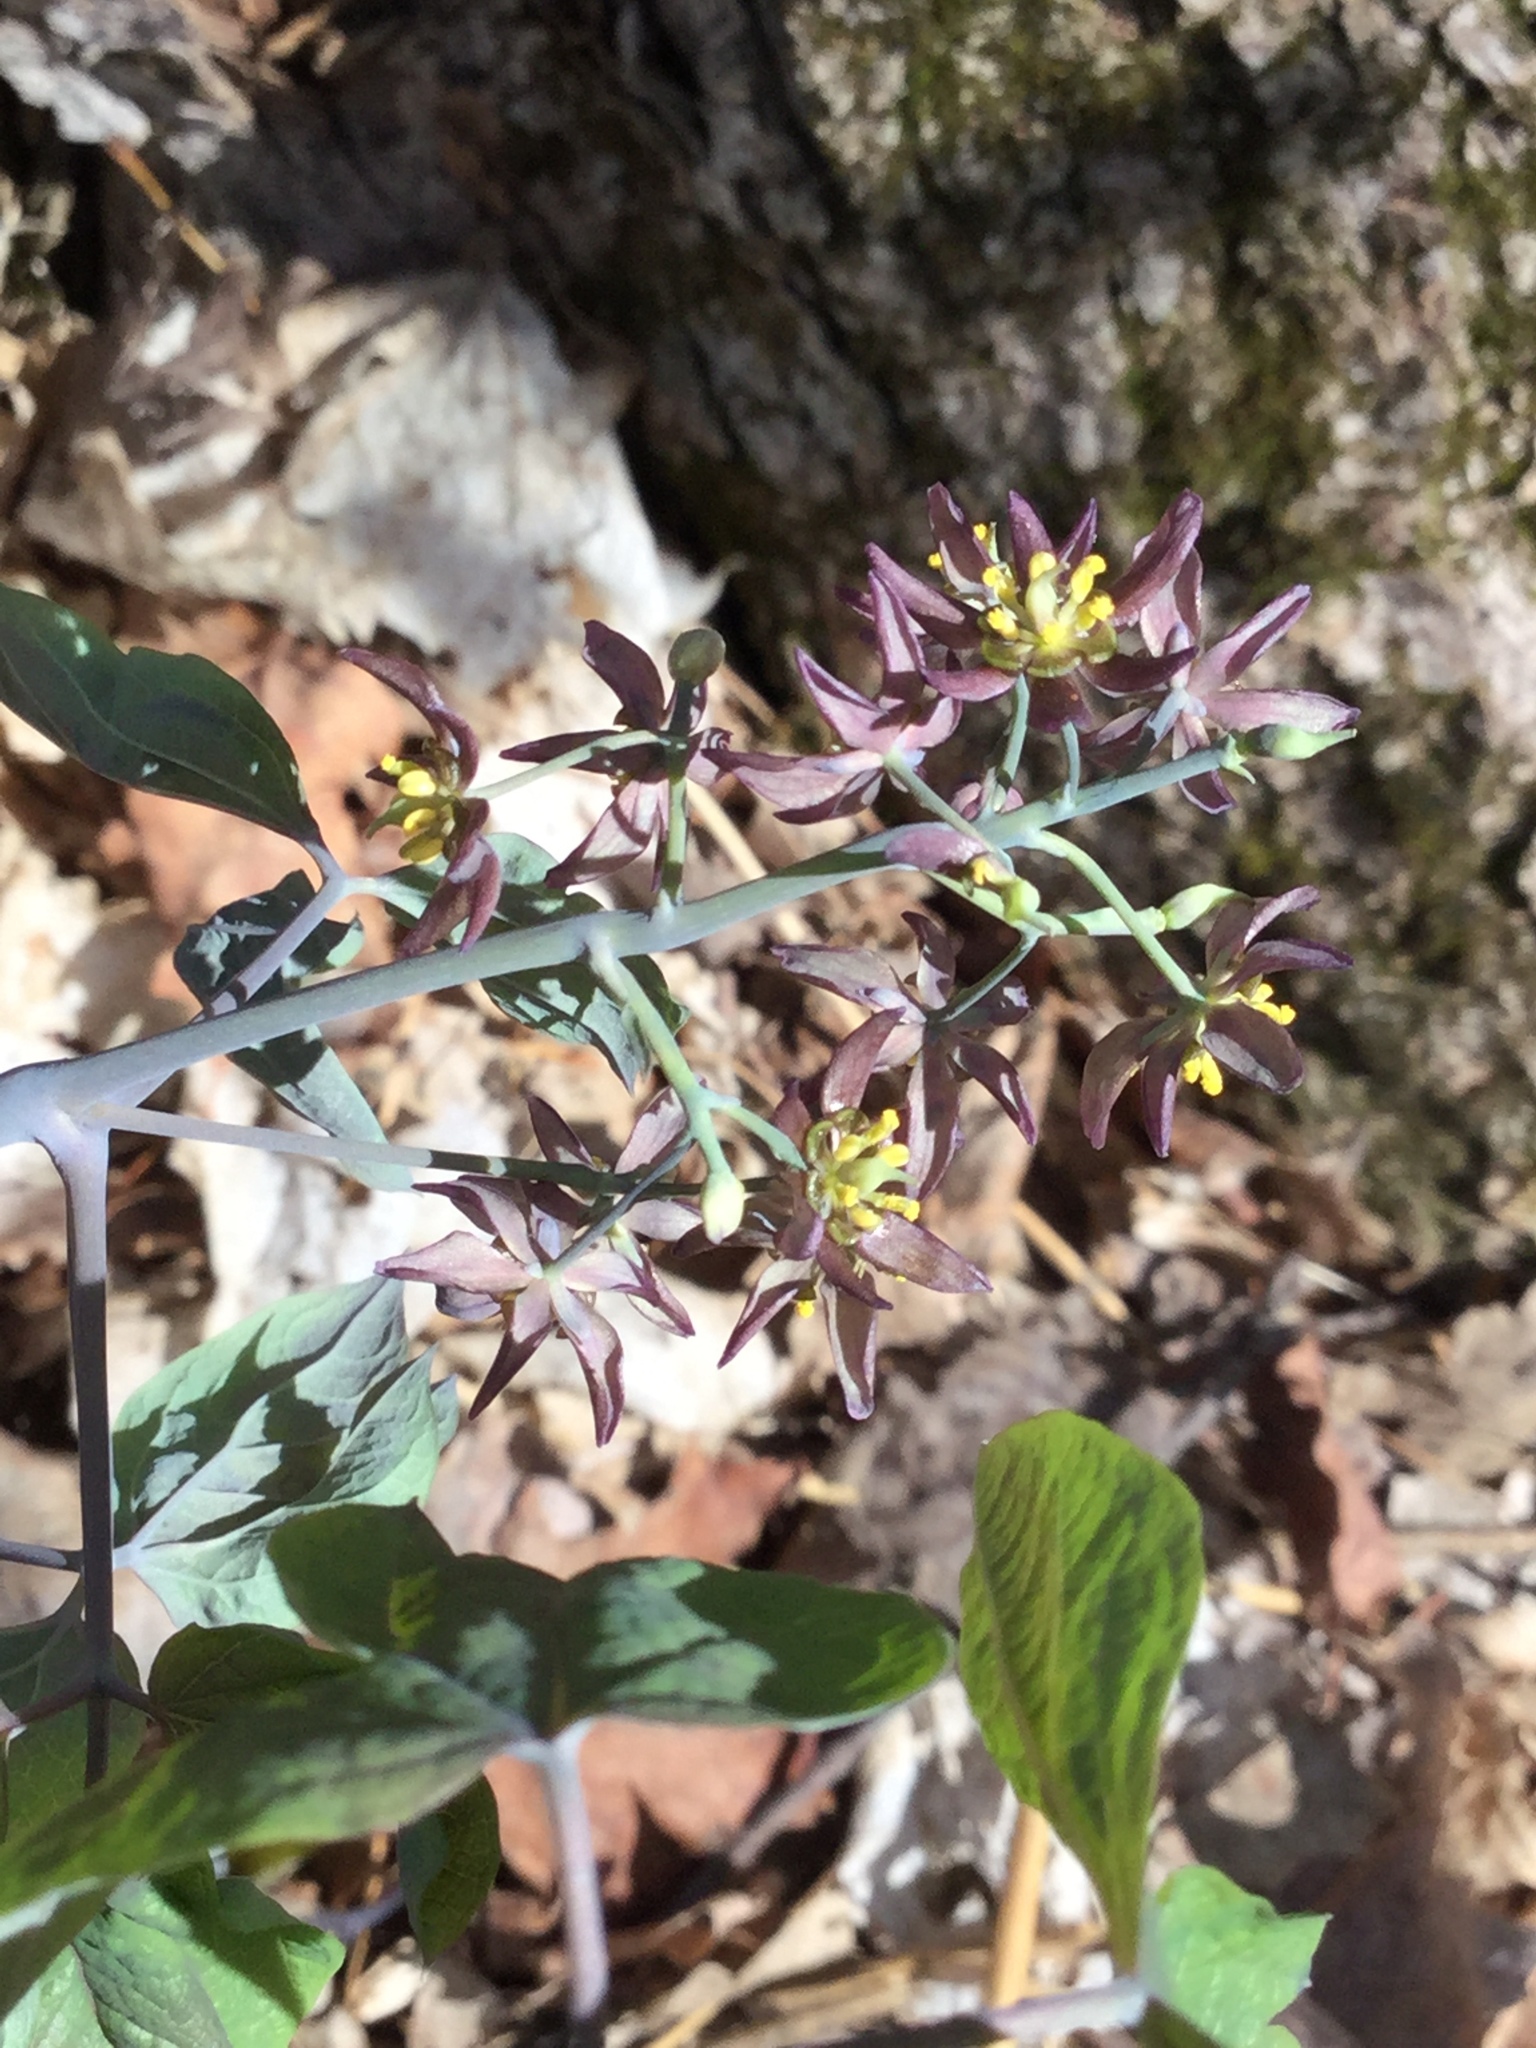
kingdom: Plantae
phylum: Tracheophyta
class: Magnoliopsida
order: Ranunculales
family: Berberidaceae
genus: Caulophyllum
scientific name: Caulophyllum giganteum
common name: Blue cohosh
